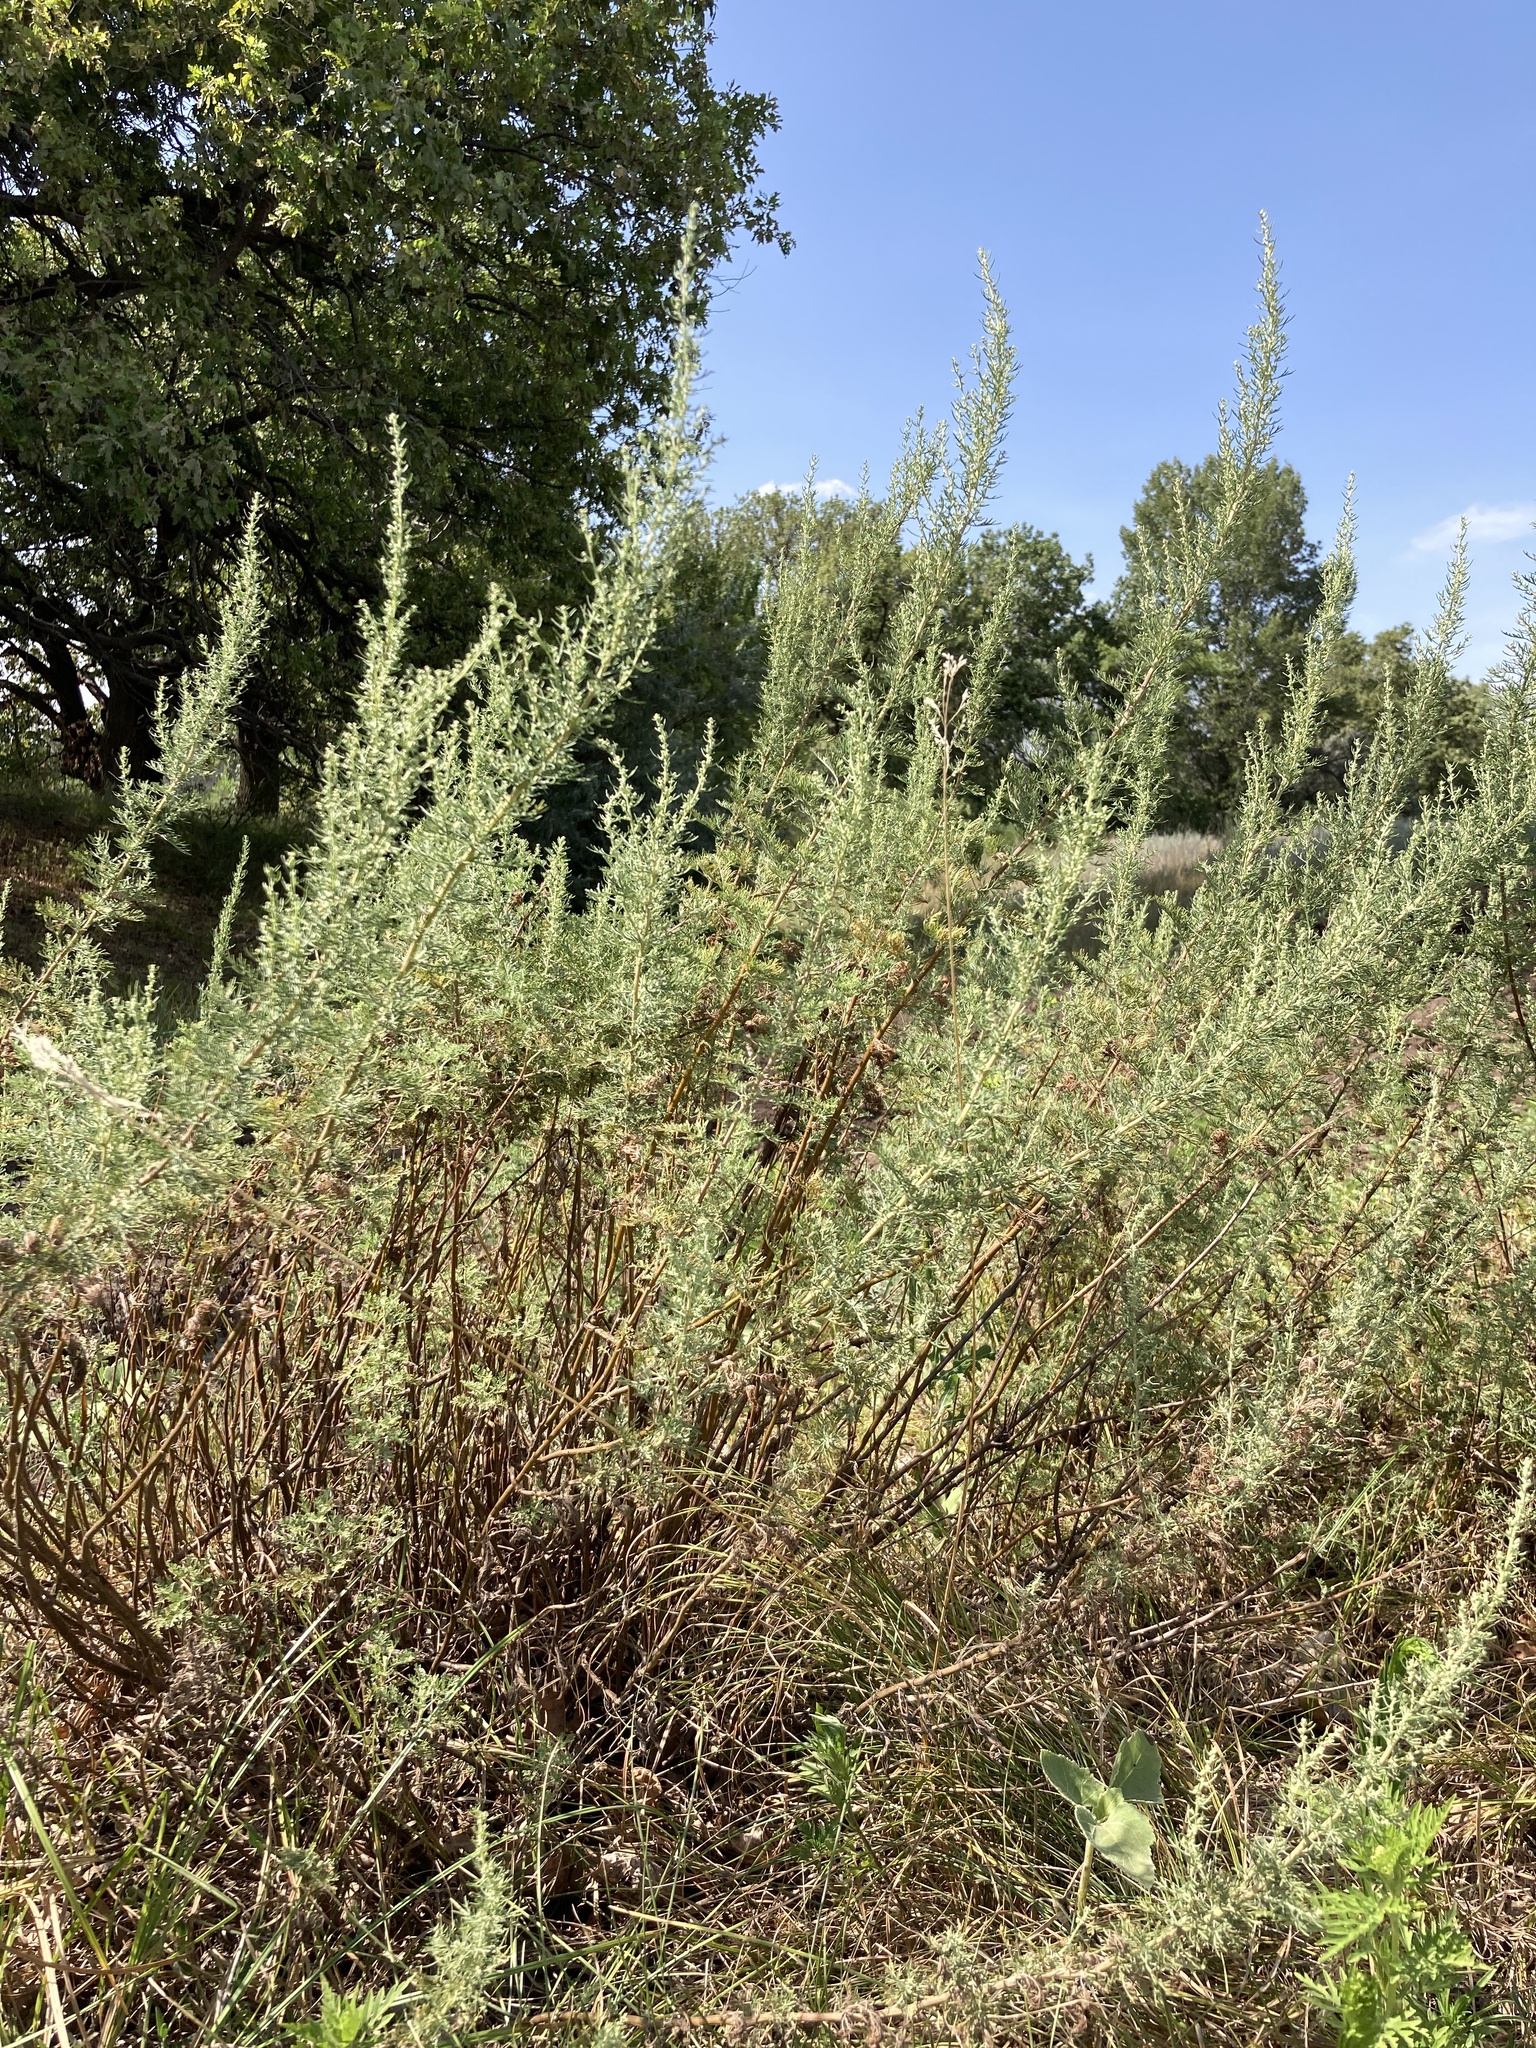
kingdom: Plantae
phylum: Tracheophyta
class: Magnoliopsida
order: Asterales
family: Asteraceae
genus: Artemisia
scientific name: Artemisia abrotanum
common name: Southernwood
